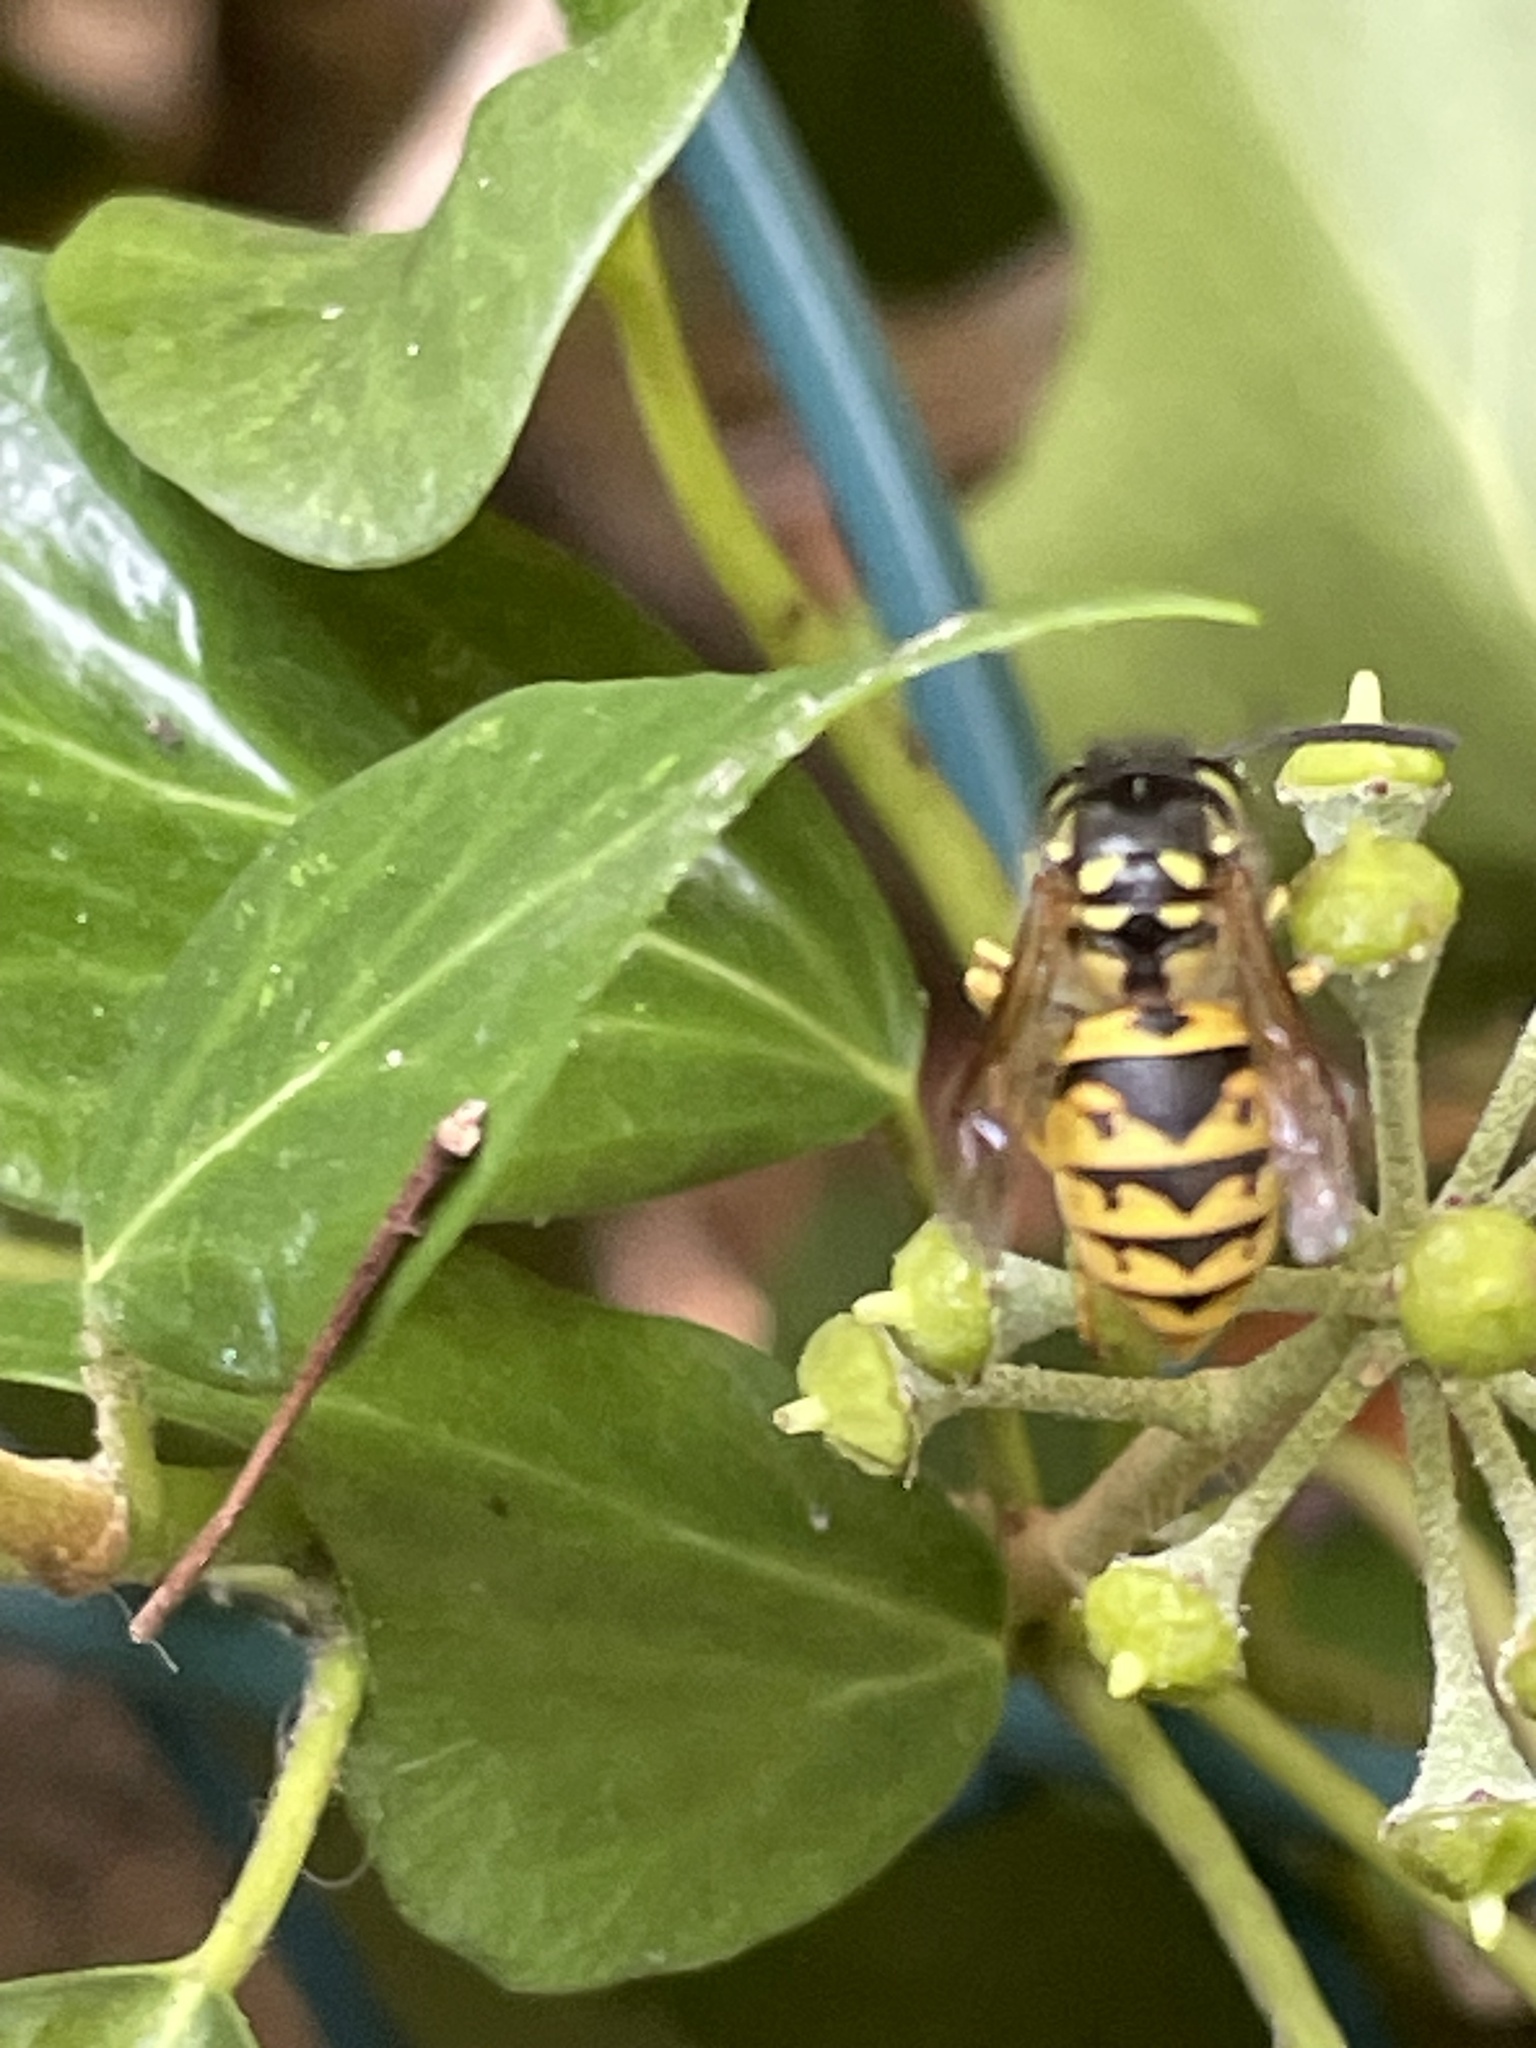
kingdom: Animalia
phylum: Arthropoda
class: Insecta
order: Hymenoptera
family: Vespidae
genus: Vespula
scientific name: Vespula germanica
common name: German wasp
